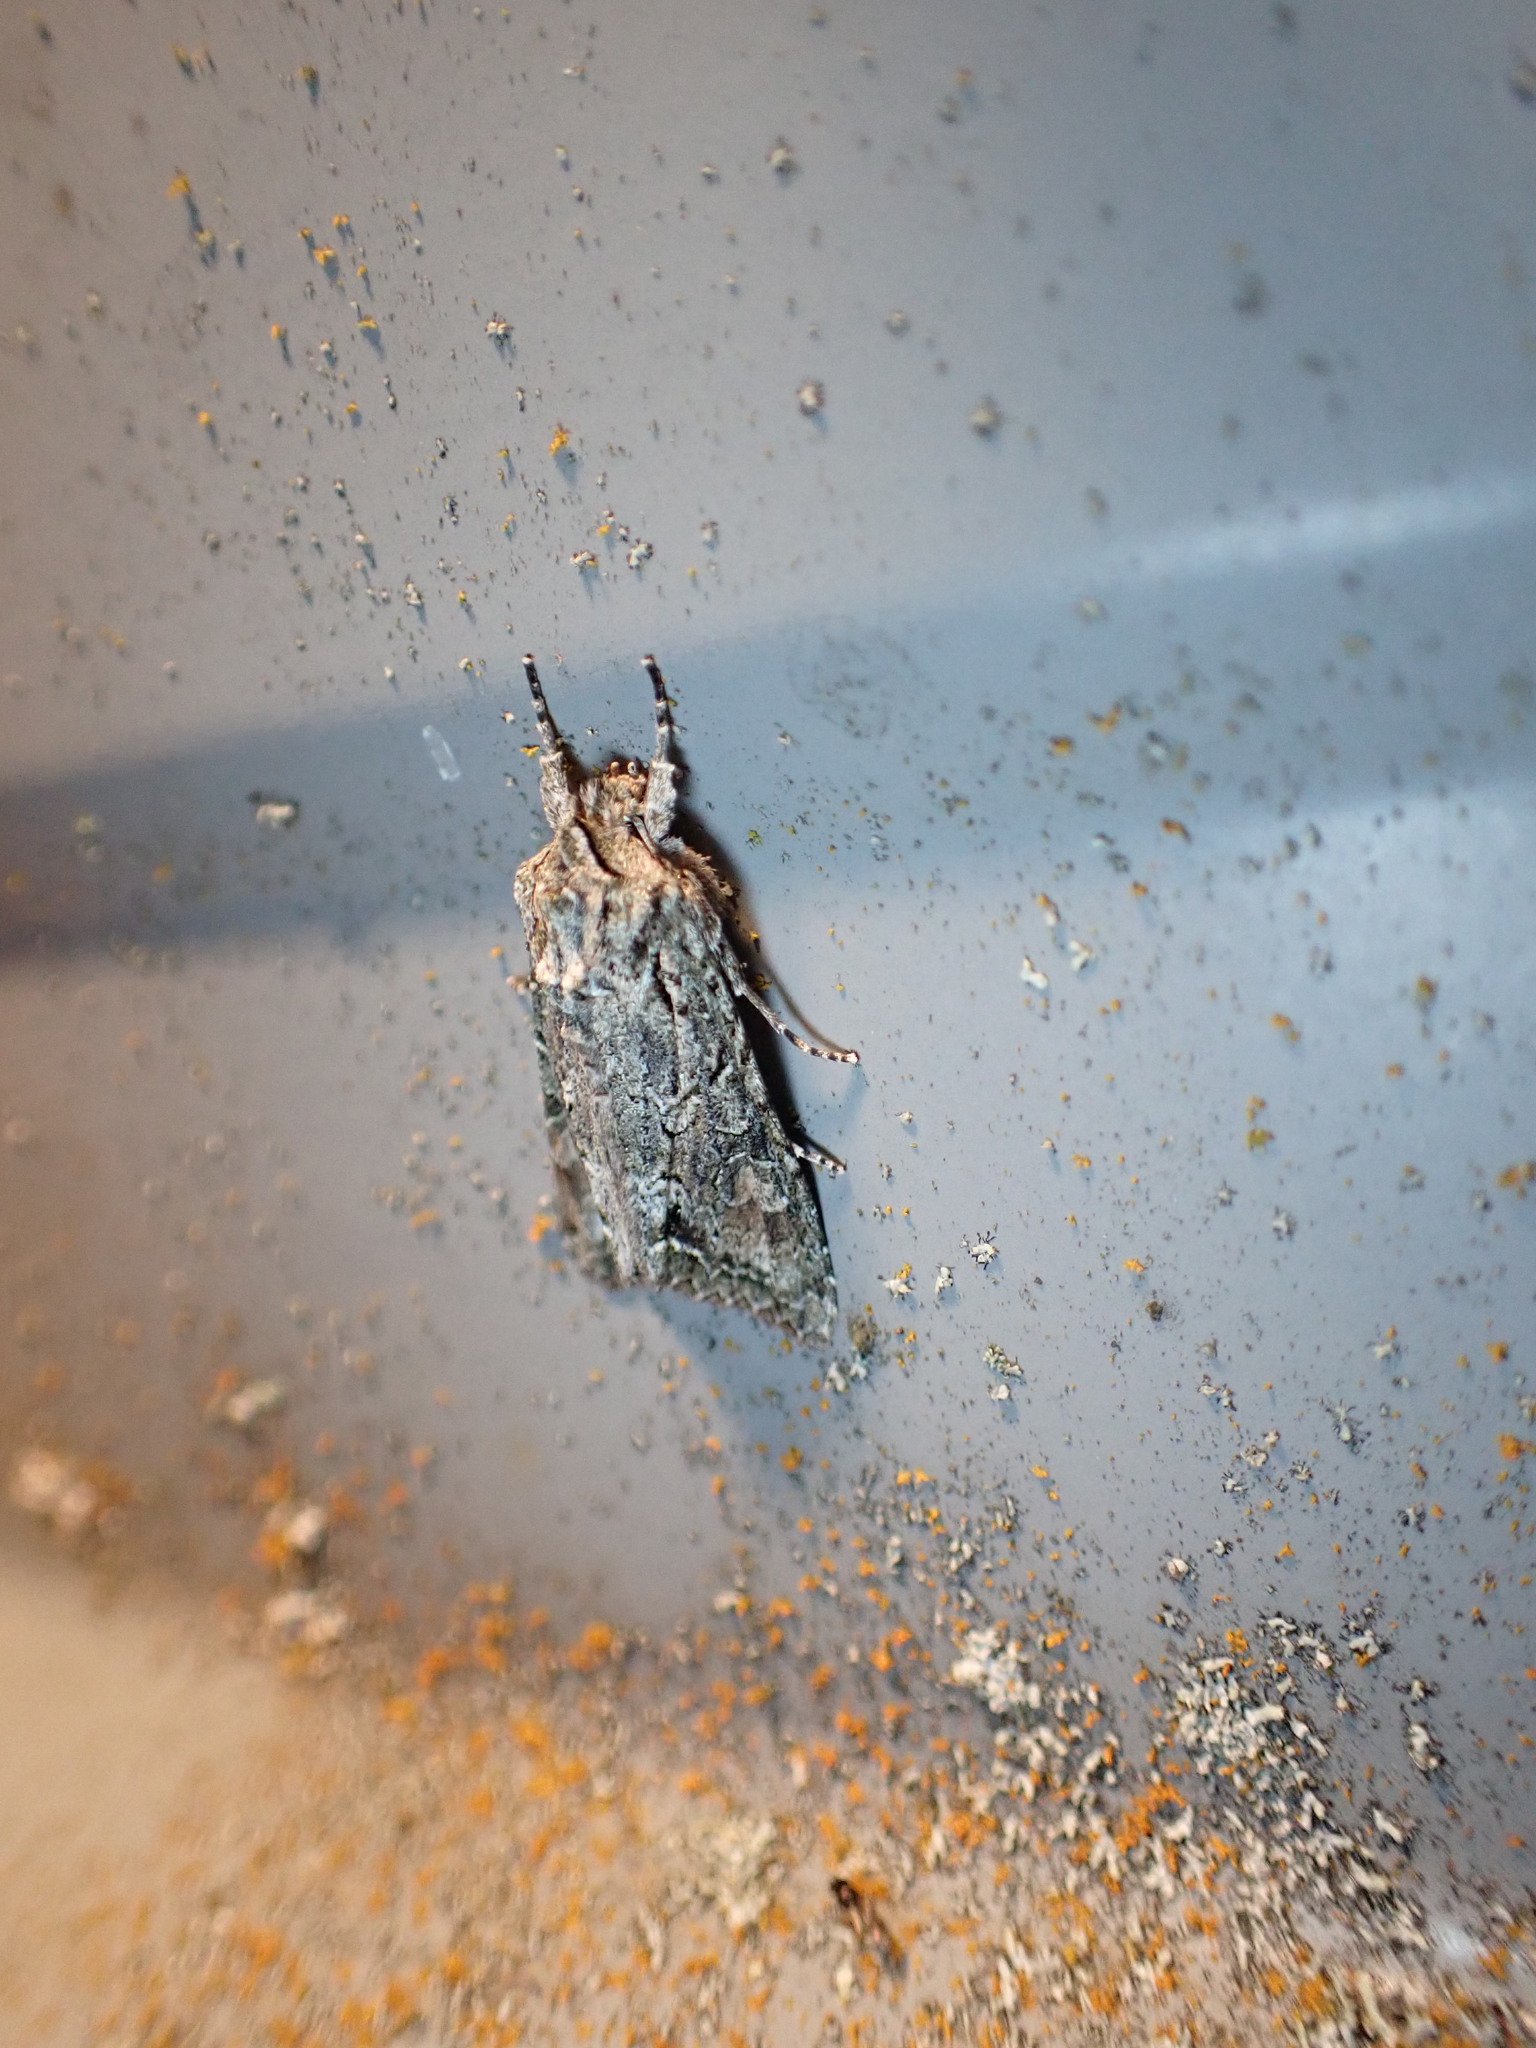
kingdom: Animalia
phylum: Arthropoda
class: Insecta
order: Lepidoptera
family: Noctuidae
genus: Ichneutica
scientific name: Ichneutica mutans
